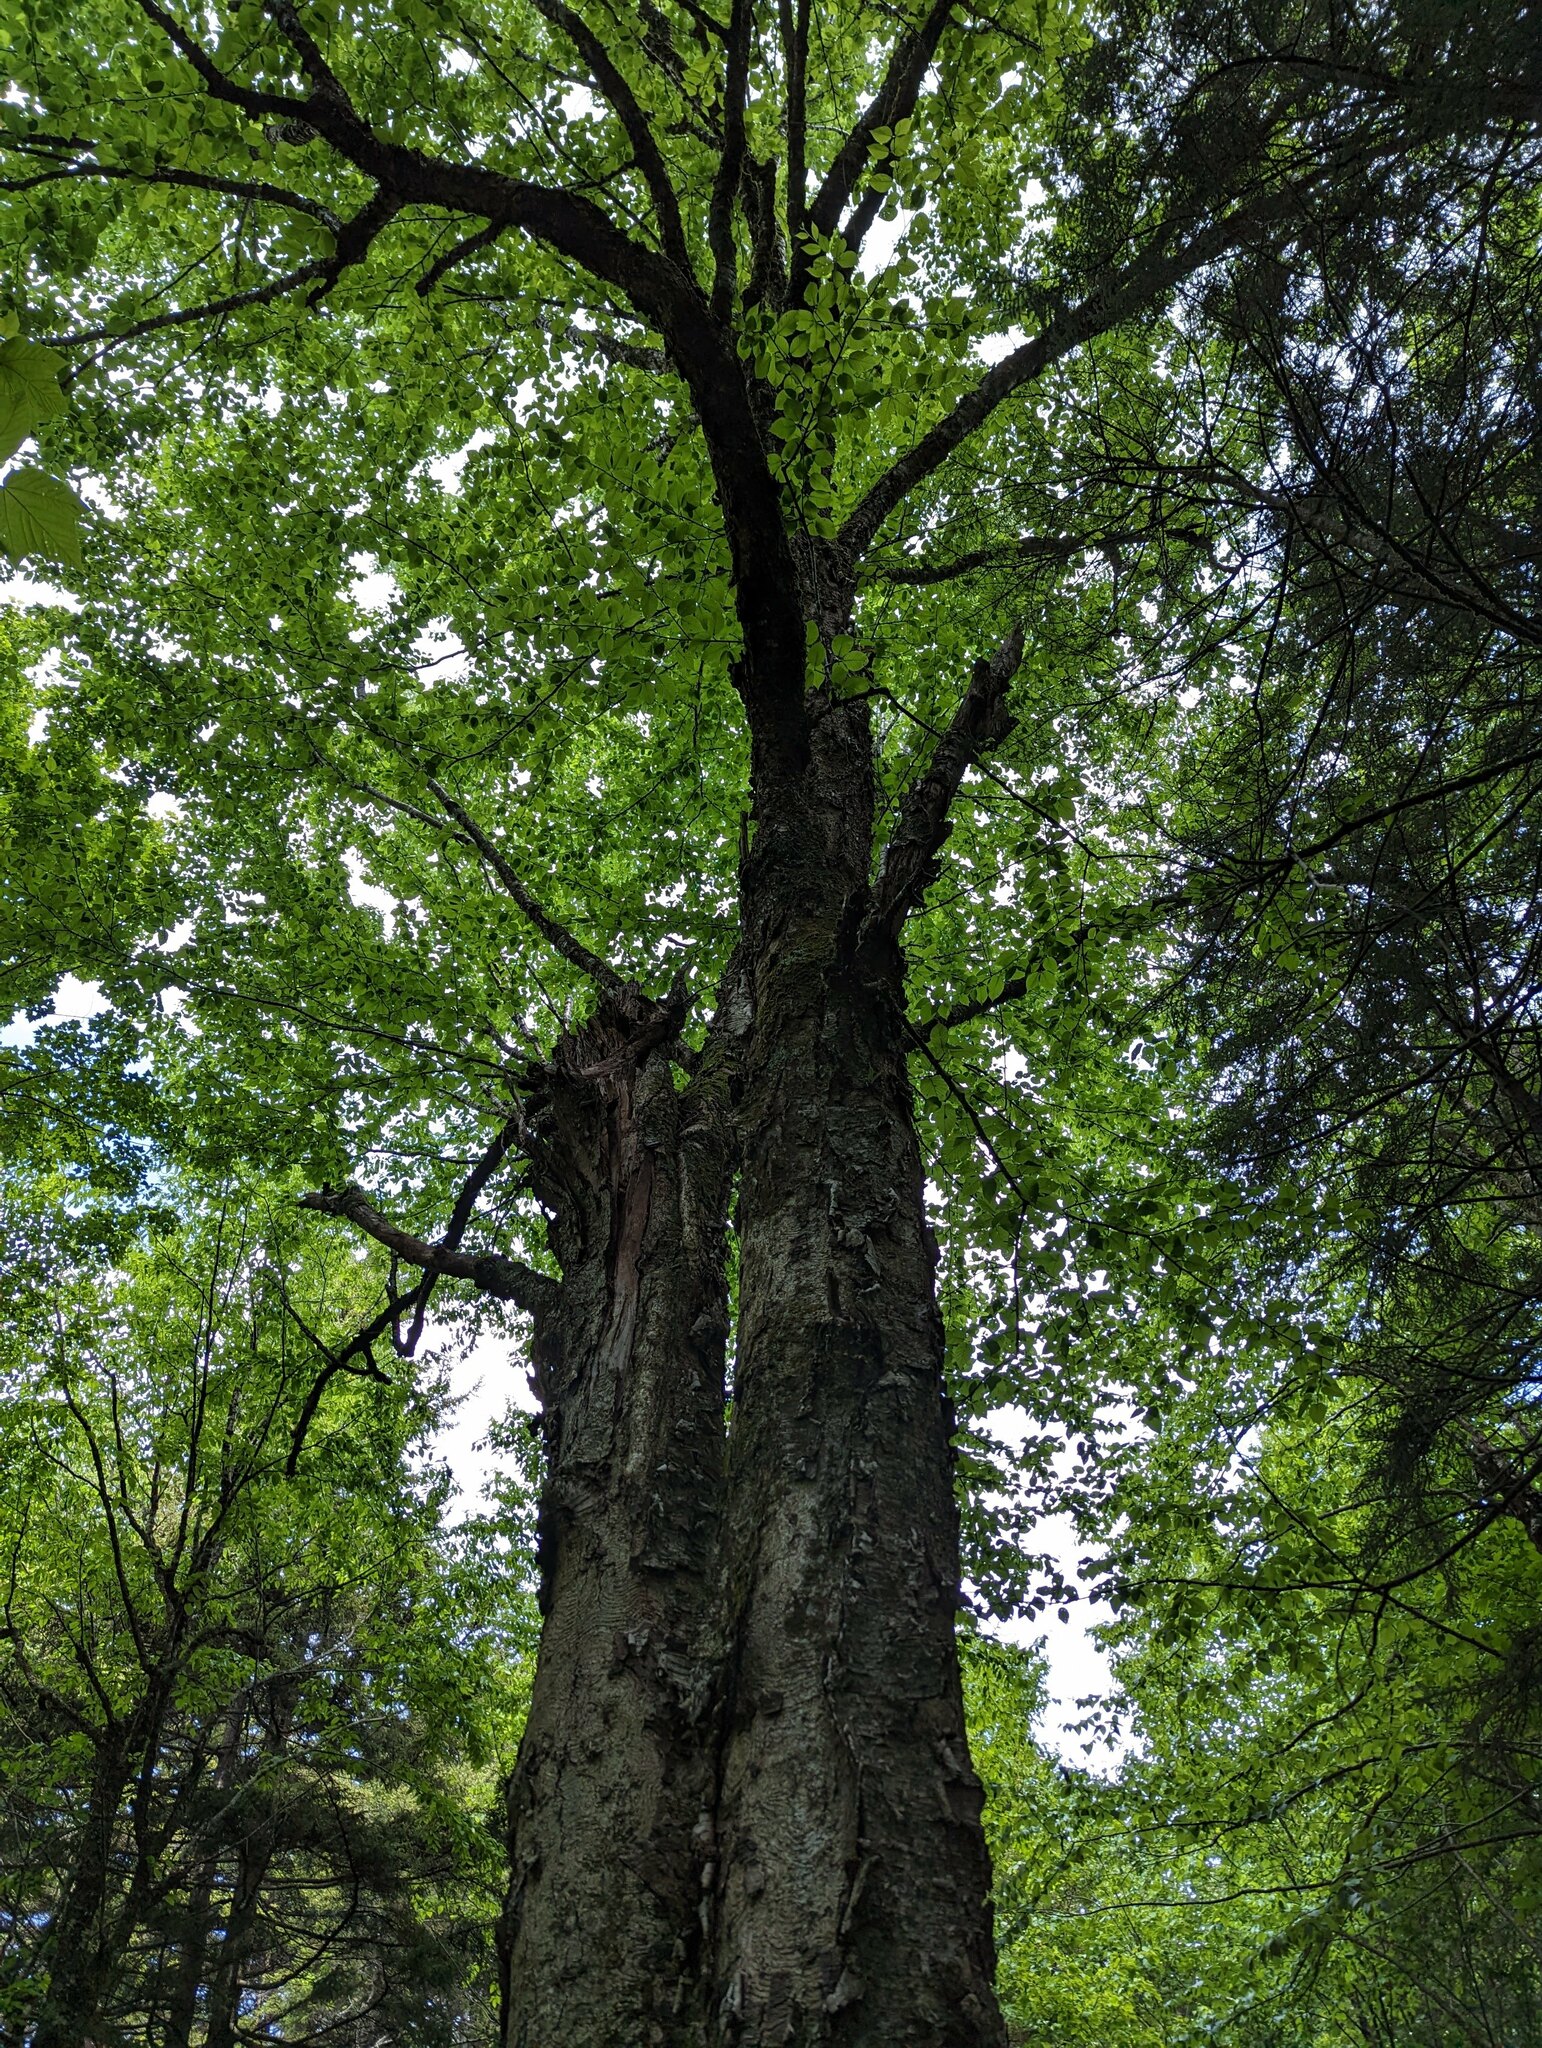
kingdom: Plantae
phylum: Tracheophyta
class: Magnoliopsida
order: Fagales
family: Betulaceae
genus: Betula
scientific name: Betula alleghaniensis
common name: Yellow birch
